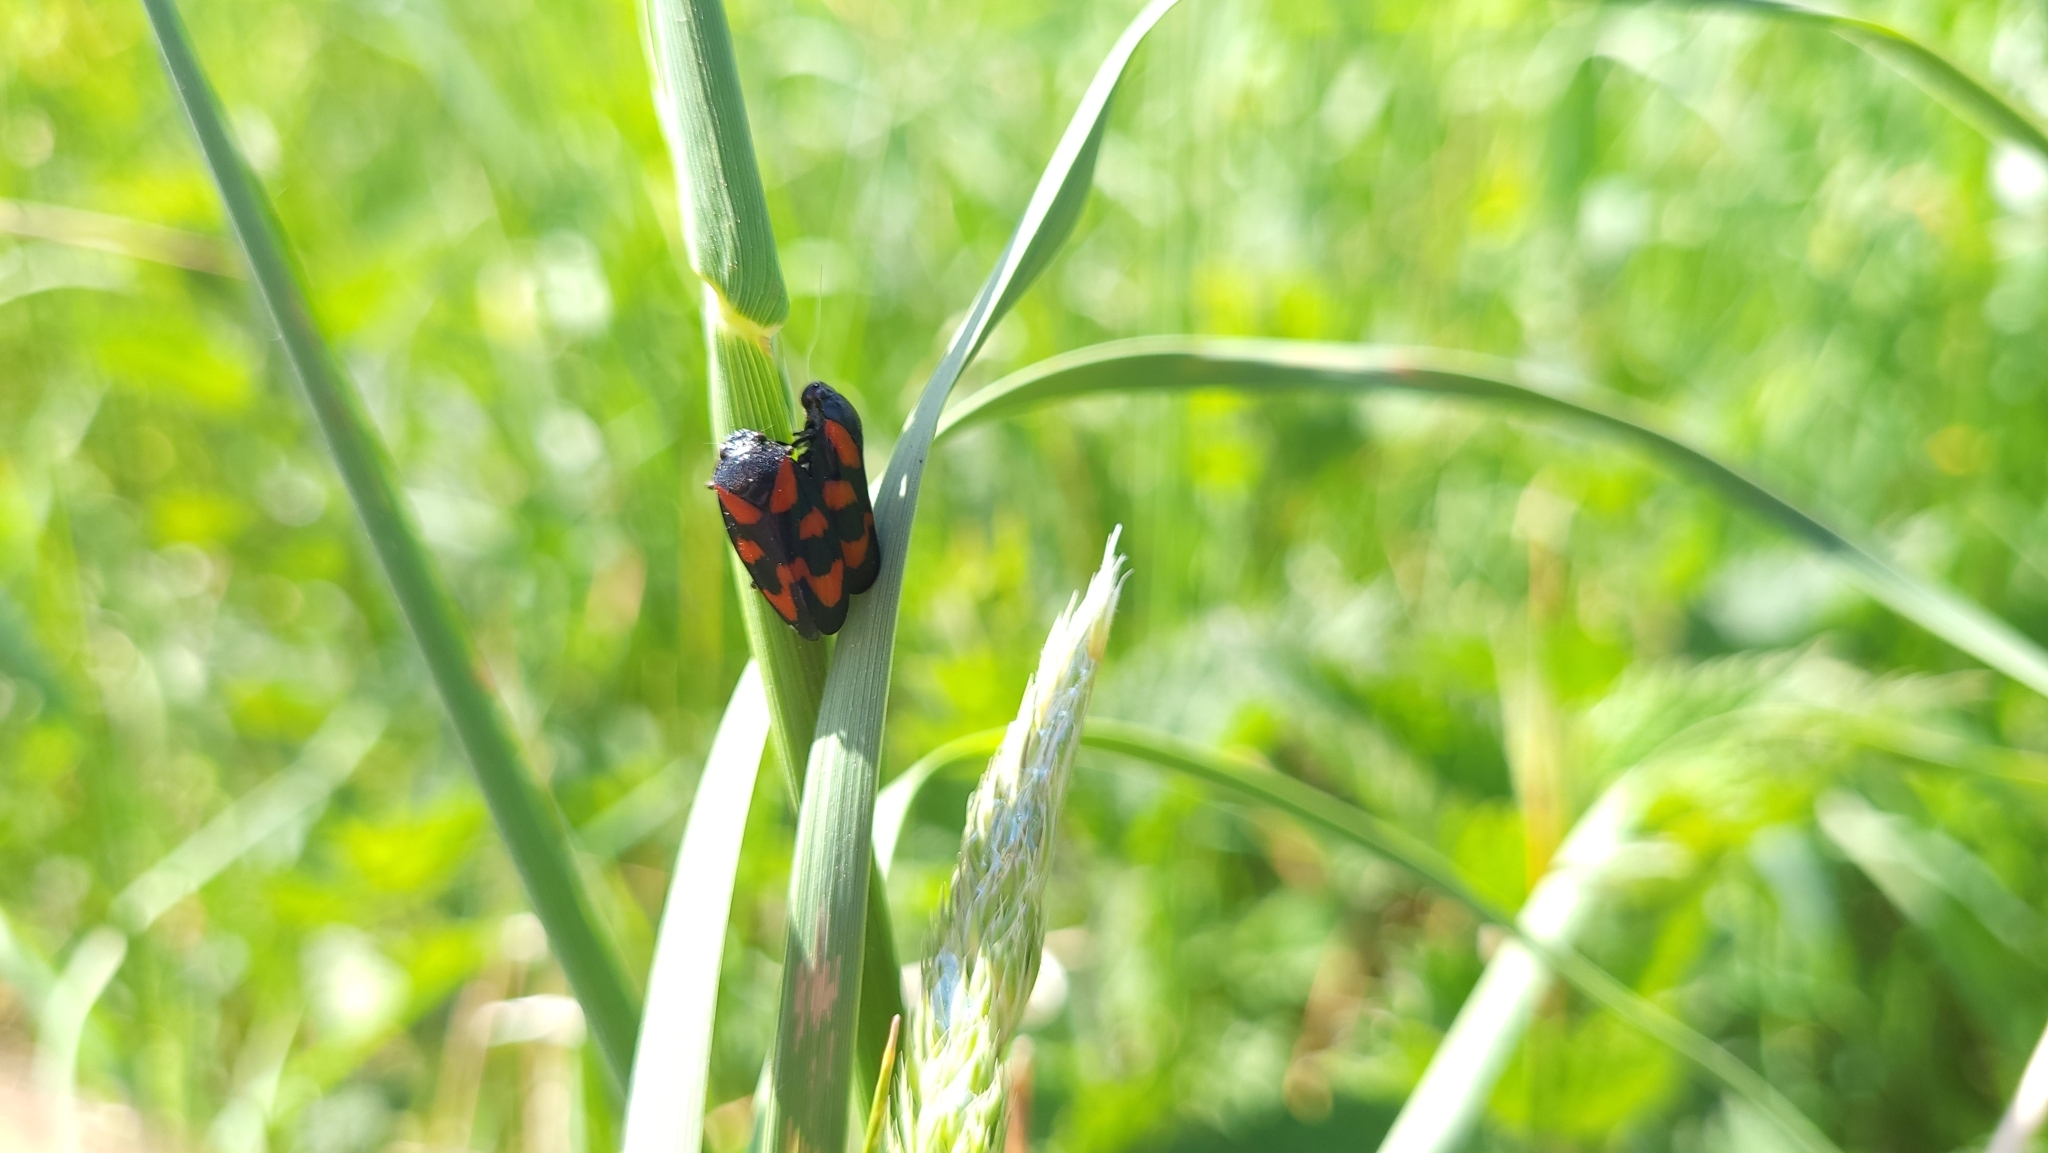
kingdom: Animalia
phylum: Arthropoda
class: Insecta
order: Hemiptera
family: Cercopidae
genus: Cercopis
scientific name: Cercopis vulnerata
